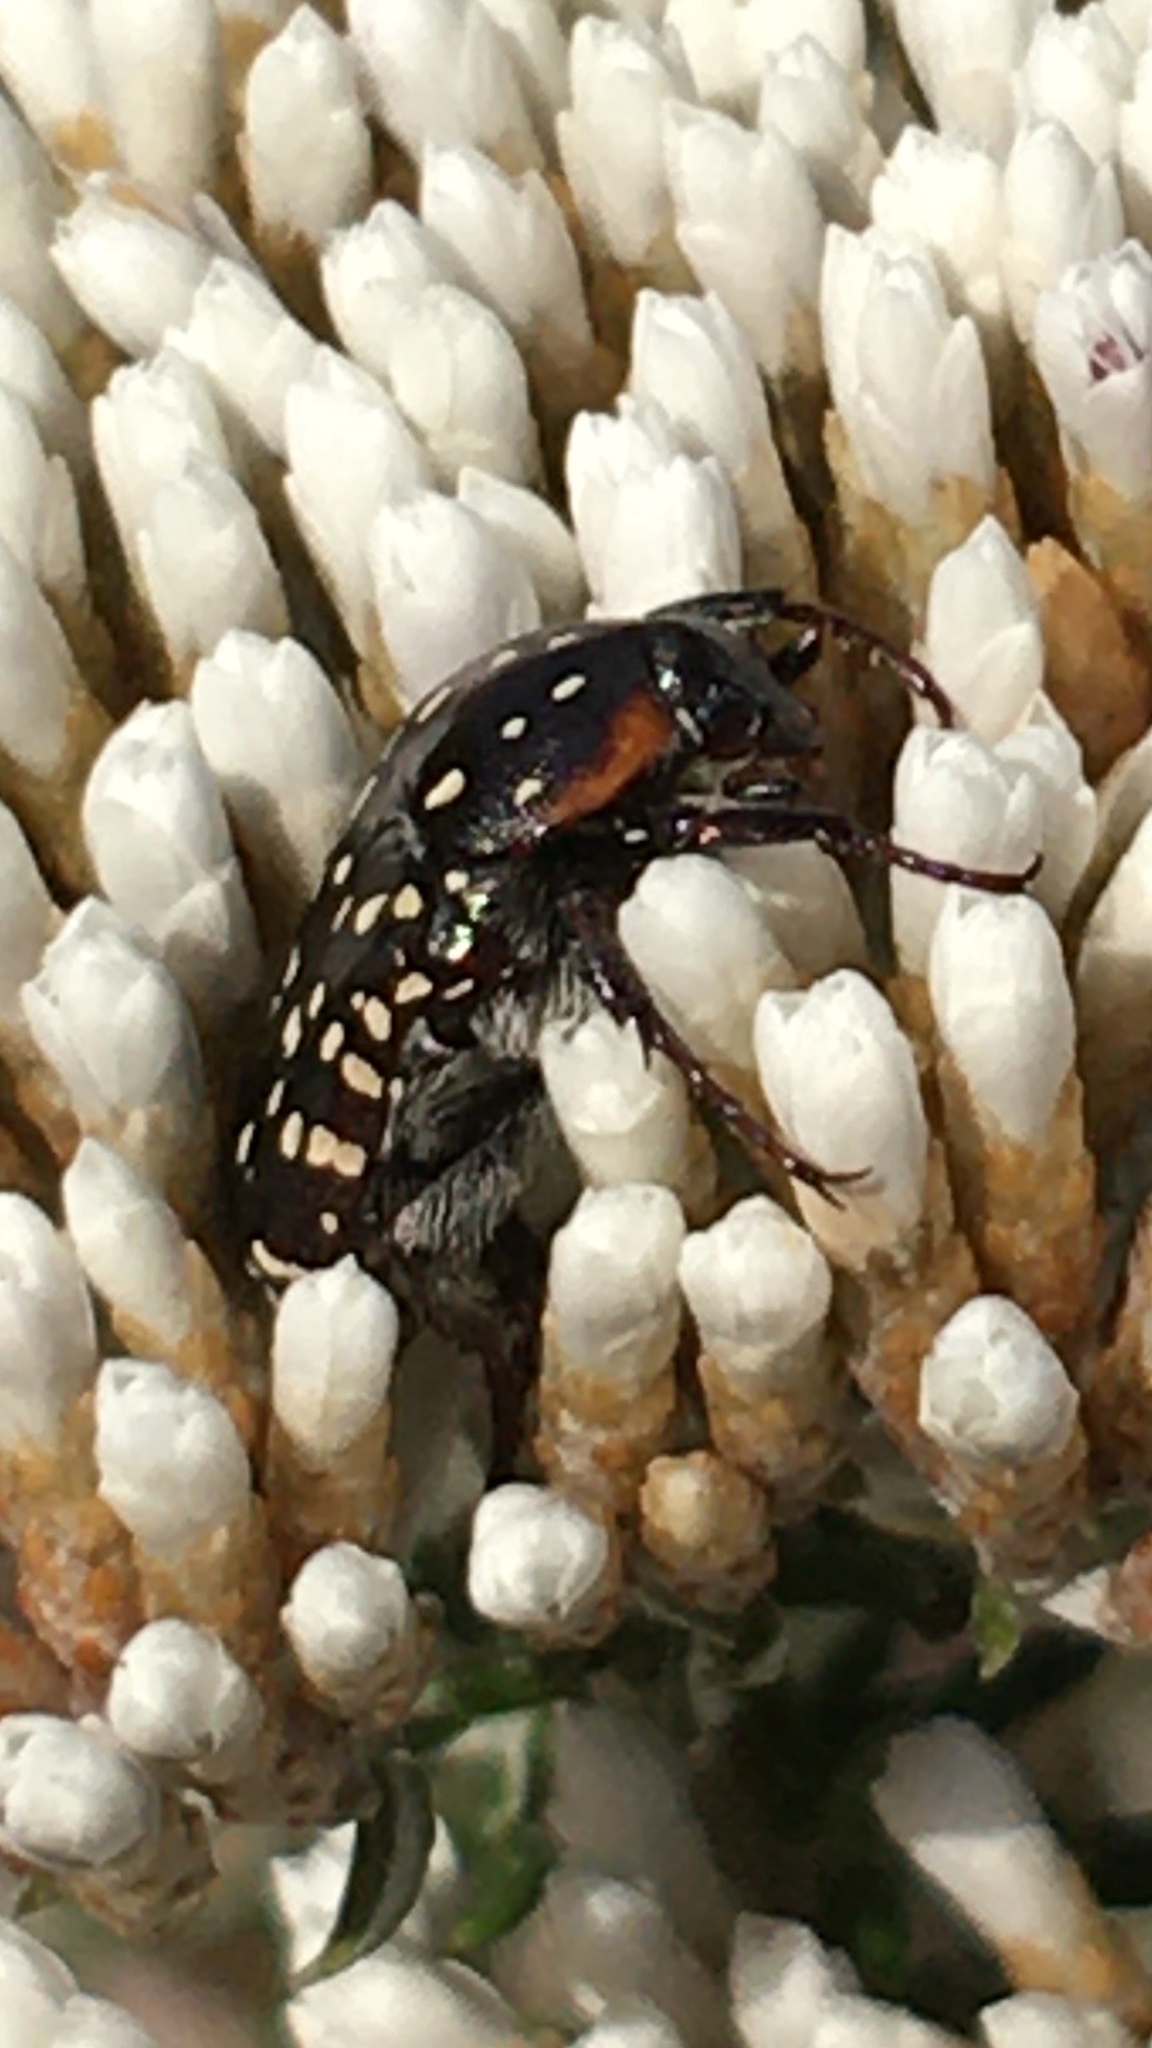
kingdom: Animalia
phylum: Arthropoda
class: Insecta
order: Coleoptera
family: Scarabaeidae
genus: Oxythyrea
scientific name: Oxythyrea
